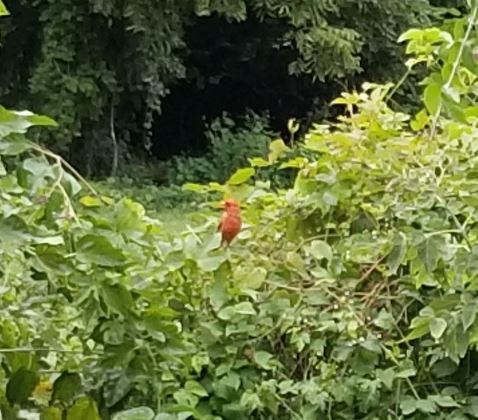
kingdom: Animalia
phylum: Chordata
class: Aves
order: Passeriformes
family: Cardinalidae
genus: Cardinalis
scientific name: Cardinalis cardinalis
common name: Northern cardinal
